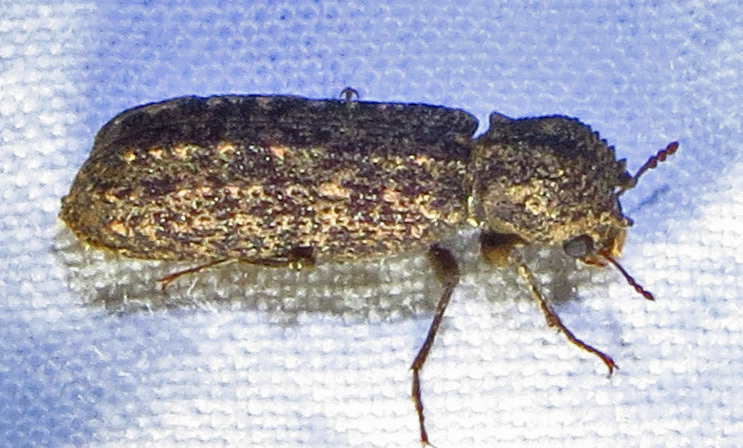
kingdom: Animalia
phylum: Arthropoda
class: Insecta
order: Coleoptera
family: Bostrichidae
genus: Lichenophanes
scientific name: Lichenophanes bicornis
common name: Two-horned powder-post beetle
